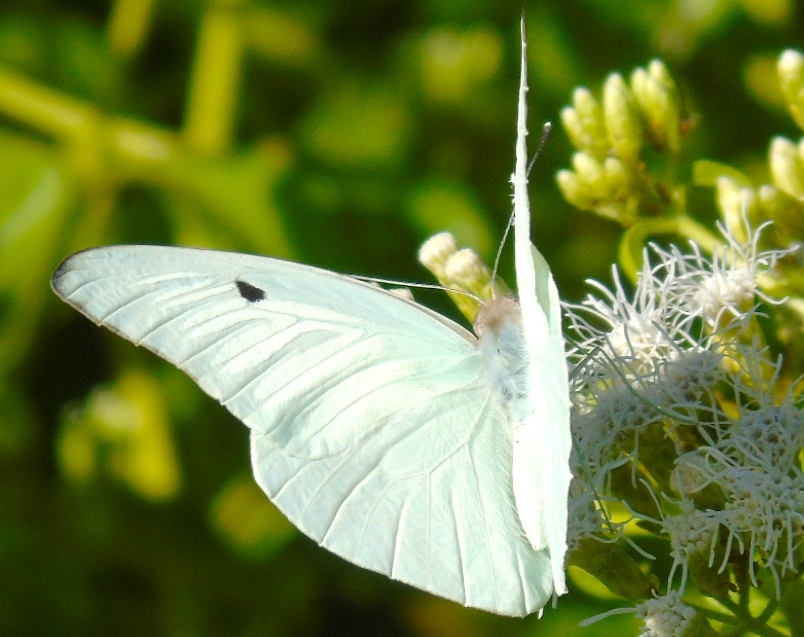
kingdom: Animalia
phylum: Arthropoda
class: Insecta
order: Lepidoptera
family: Pieridae
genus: Ganyra
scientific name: Ganyra josephina
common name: Giant white
